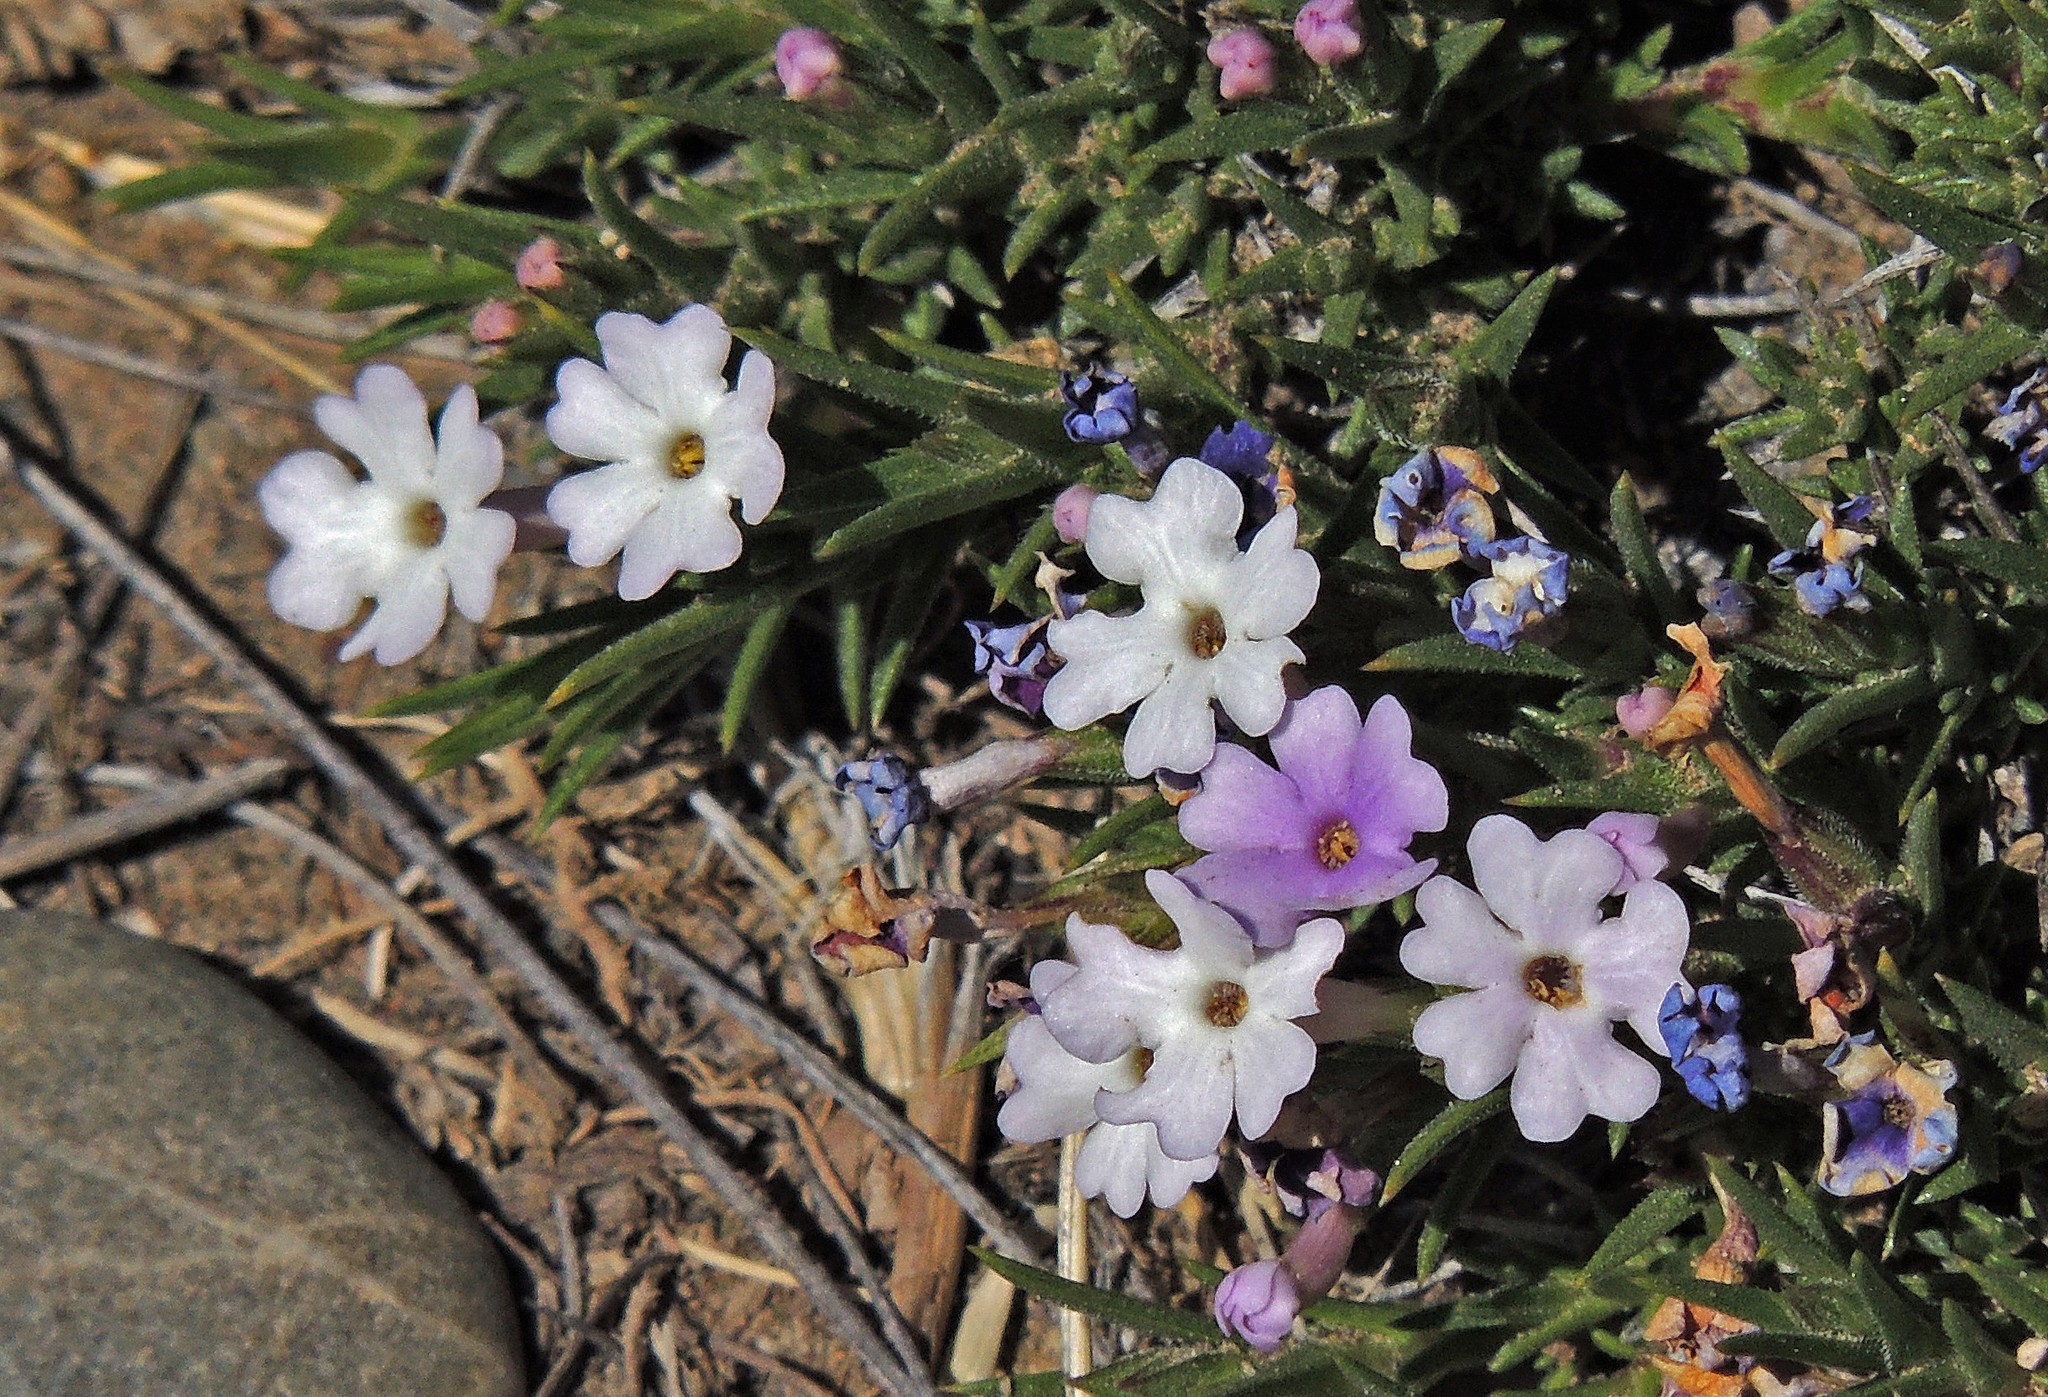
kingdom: Plantae
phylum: Tracheophyta
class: Magnoliopsida
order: Lamiales
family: Verbenaceae
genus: Junellia
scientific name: Junellia toninii
